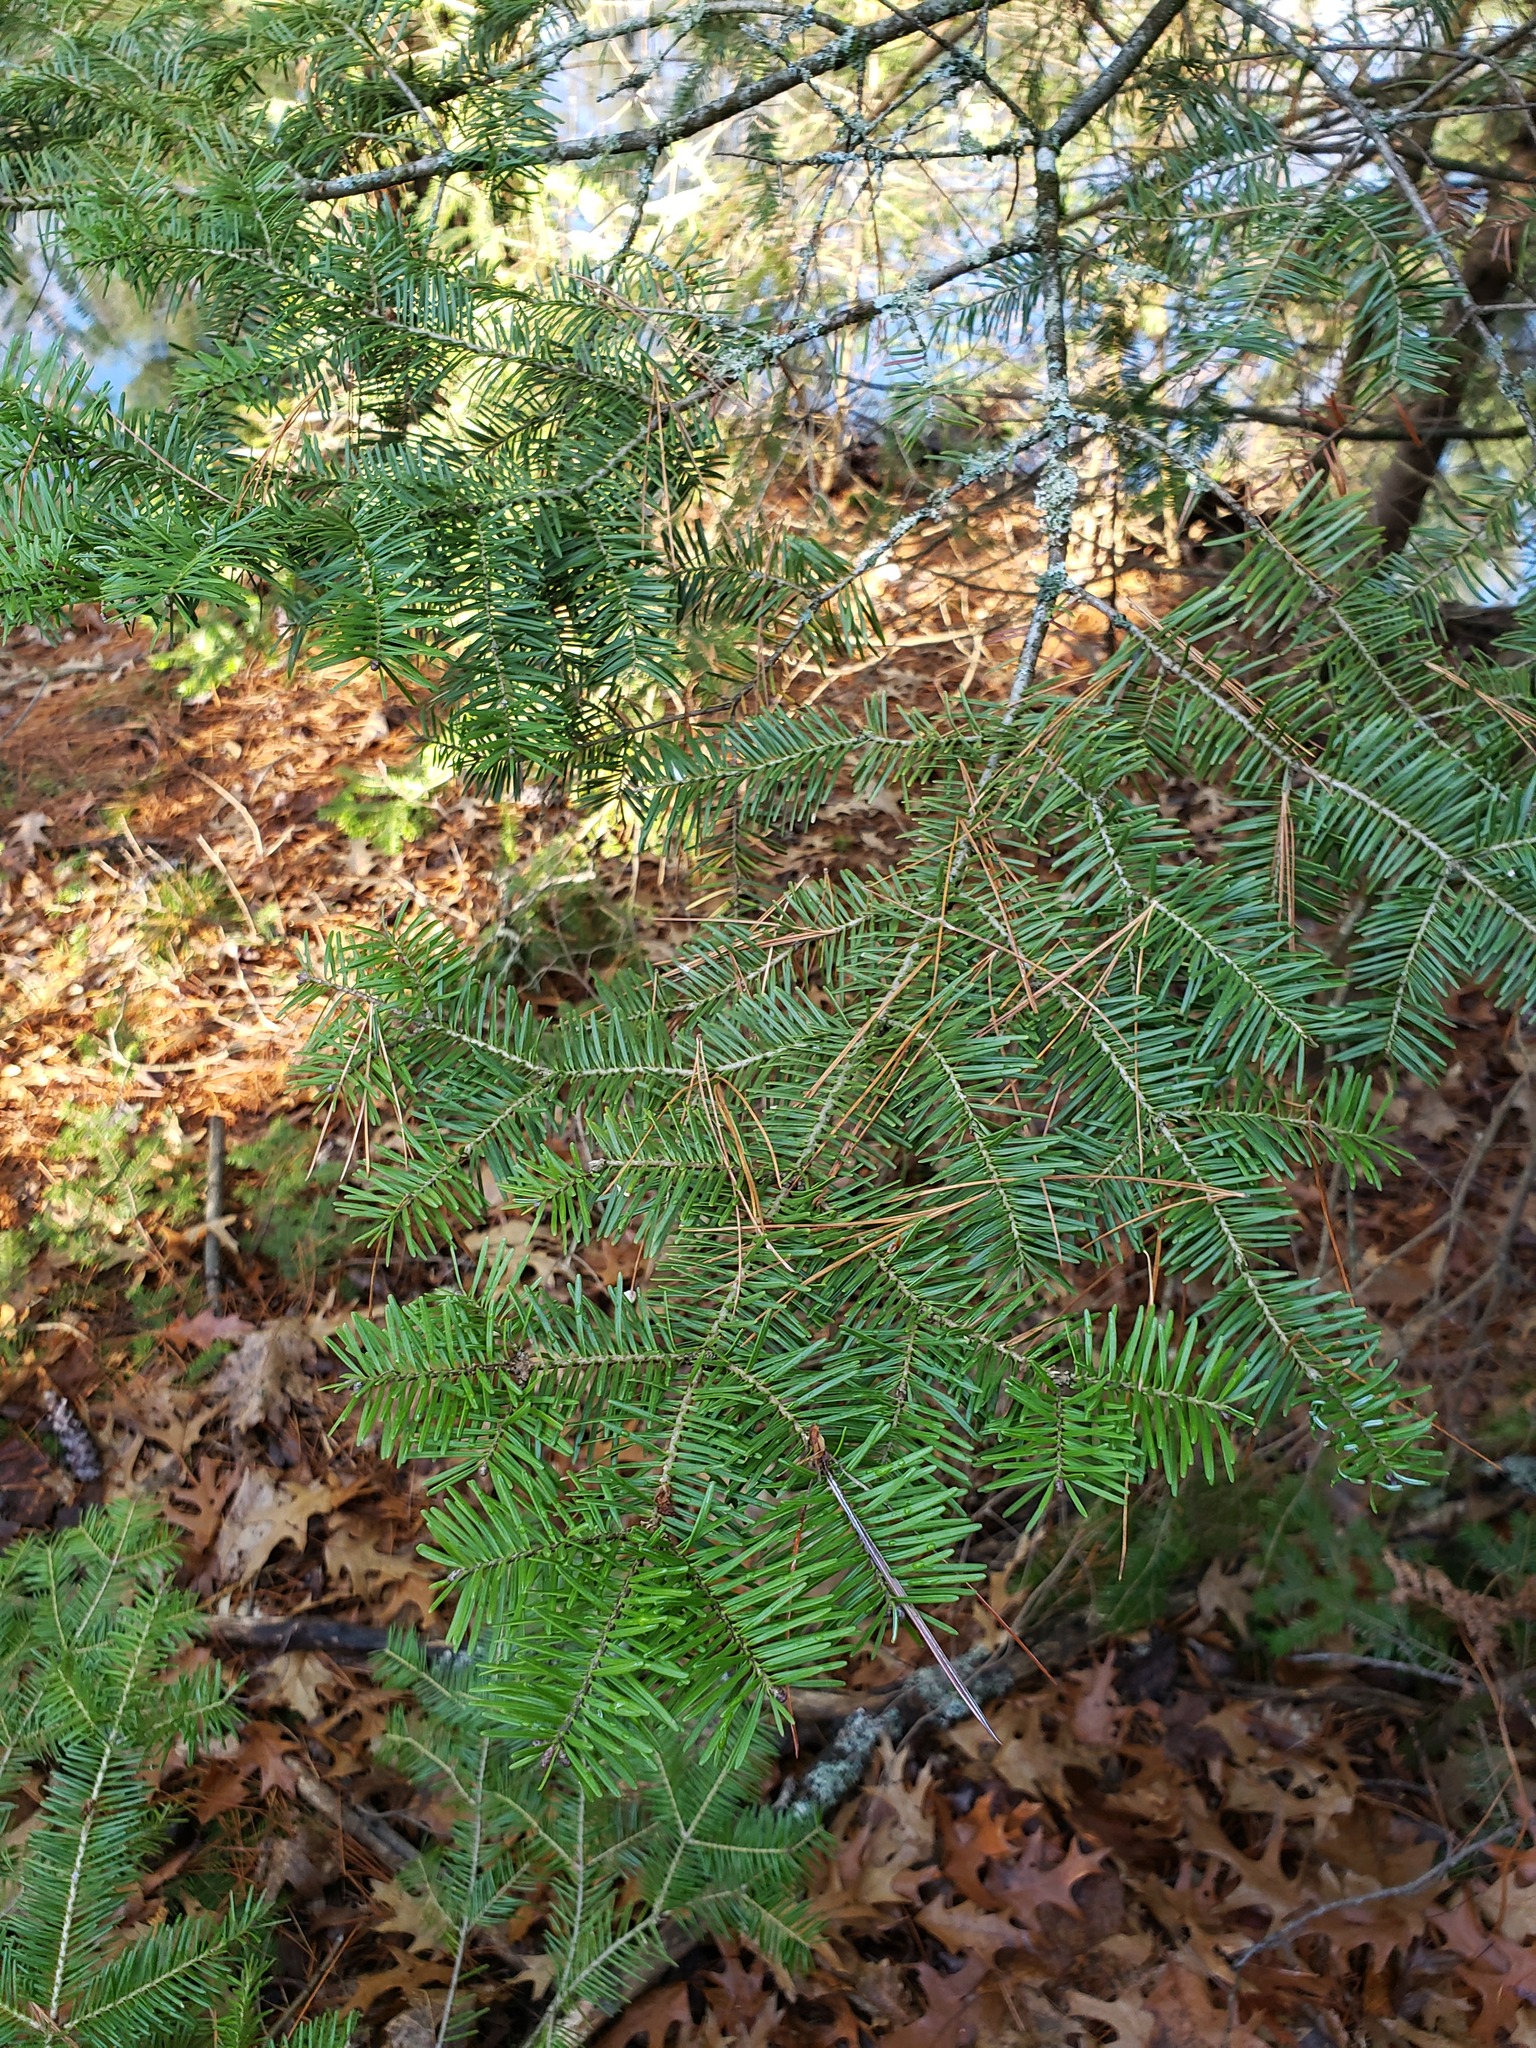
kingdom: Plantae
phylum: Tracheophyta
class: Pinopsida
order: Pinales
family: Pinaceae
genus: Abies
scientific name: Abies balsamea
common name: Balsam fir
